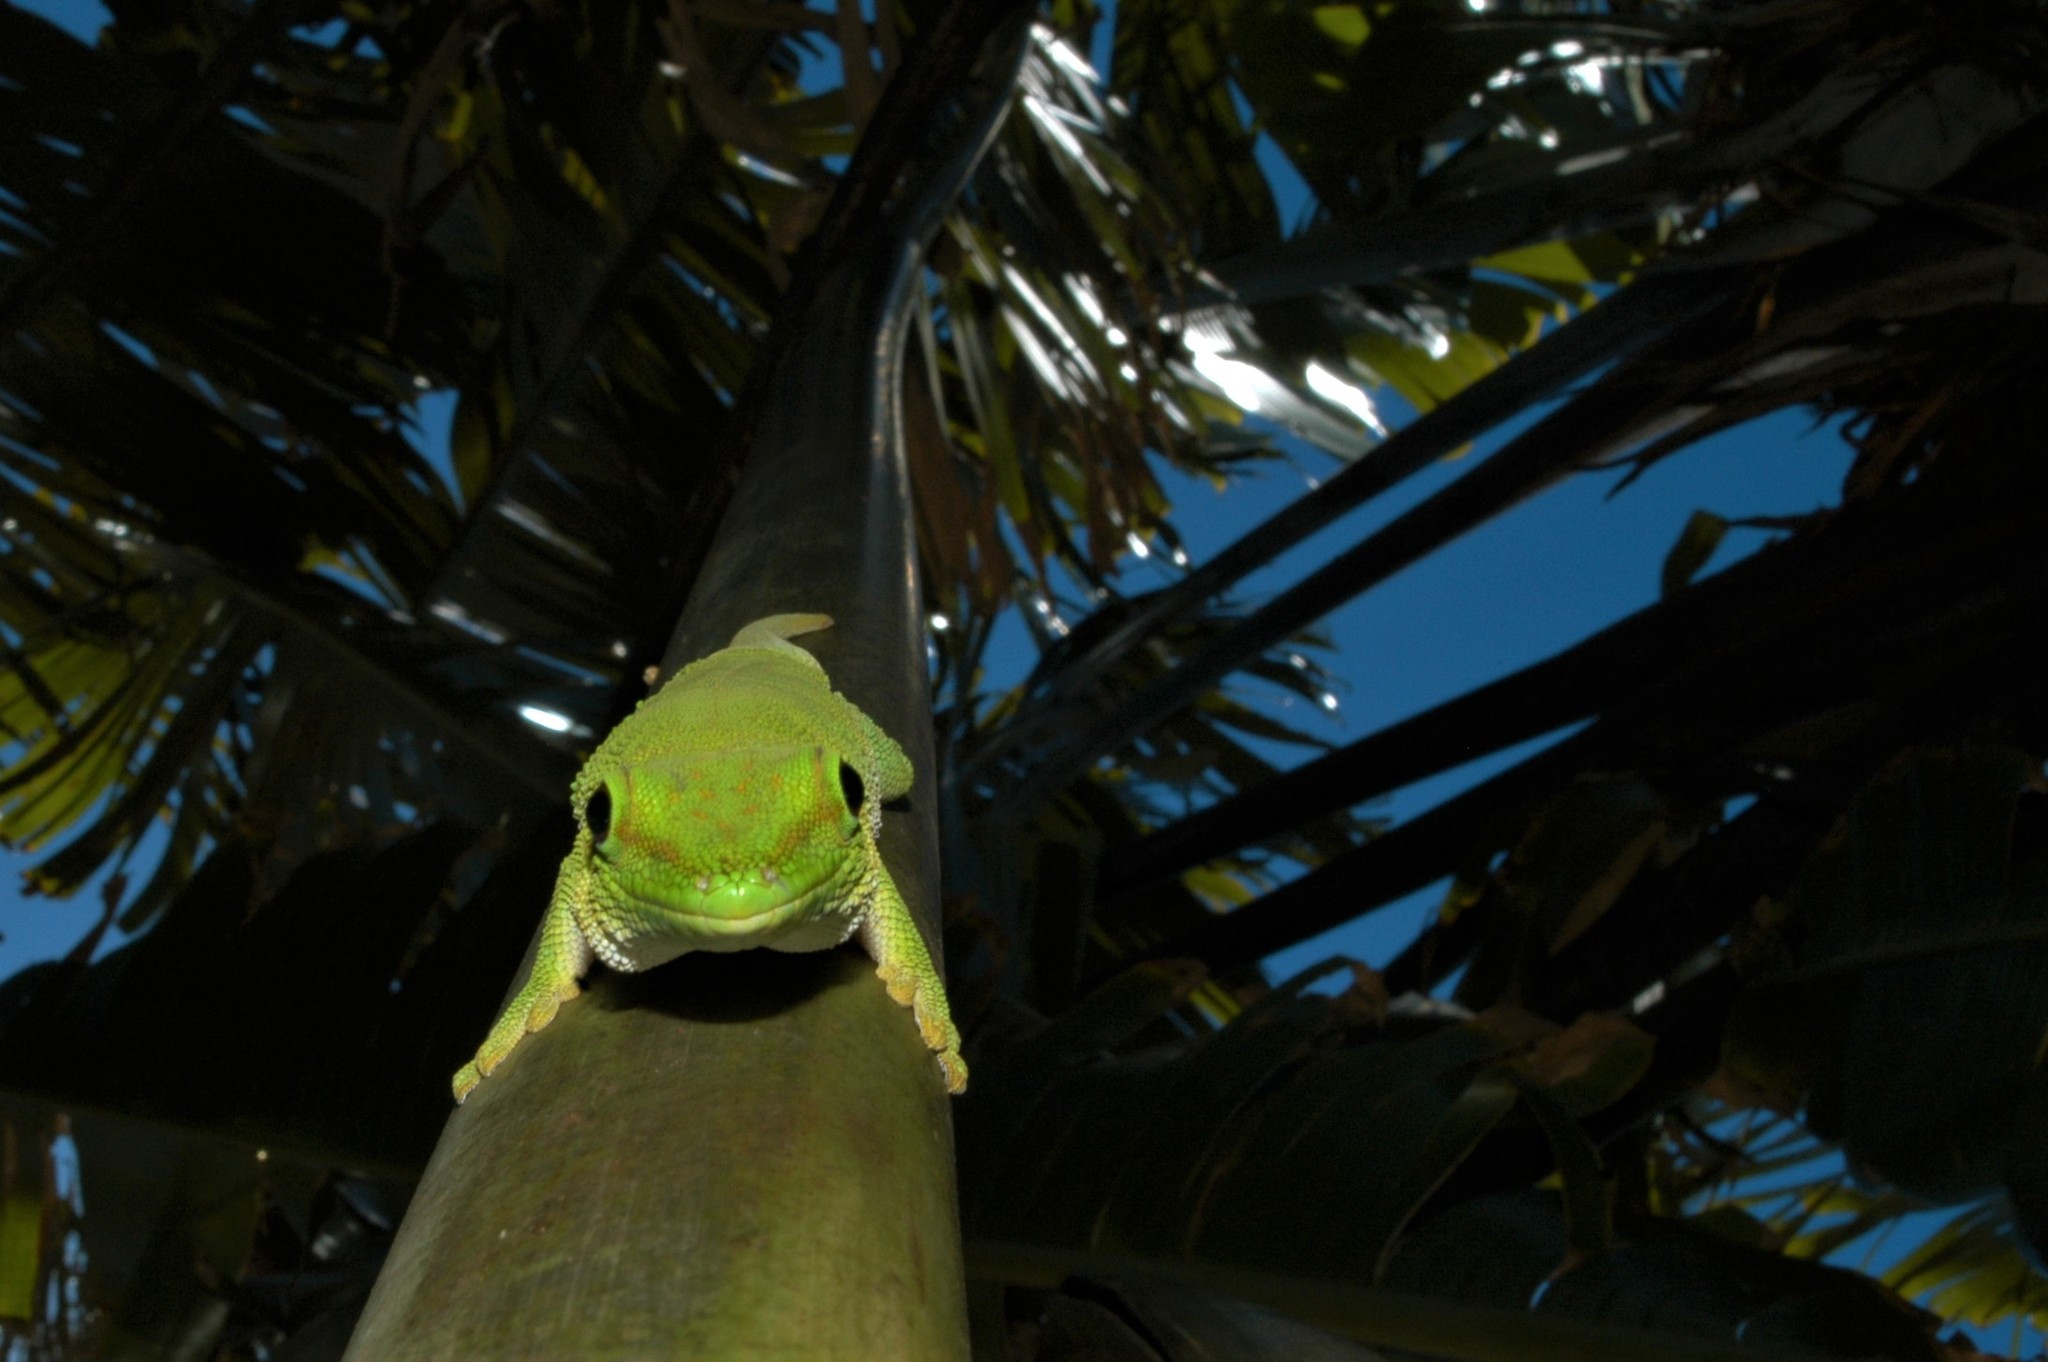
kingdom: Animalia
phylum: Chordata
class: Squamata
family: Gekkonidae
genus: Phelsuma
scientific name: Phelsuma kochi
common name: Madagascar day gecko
